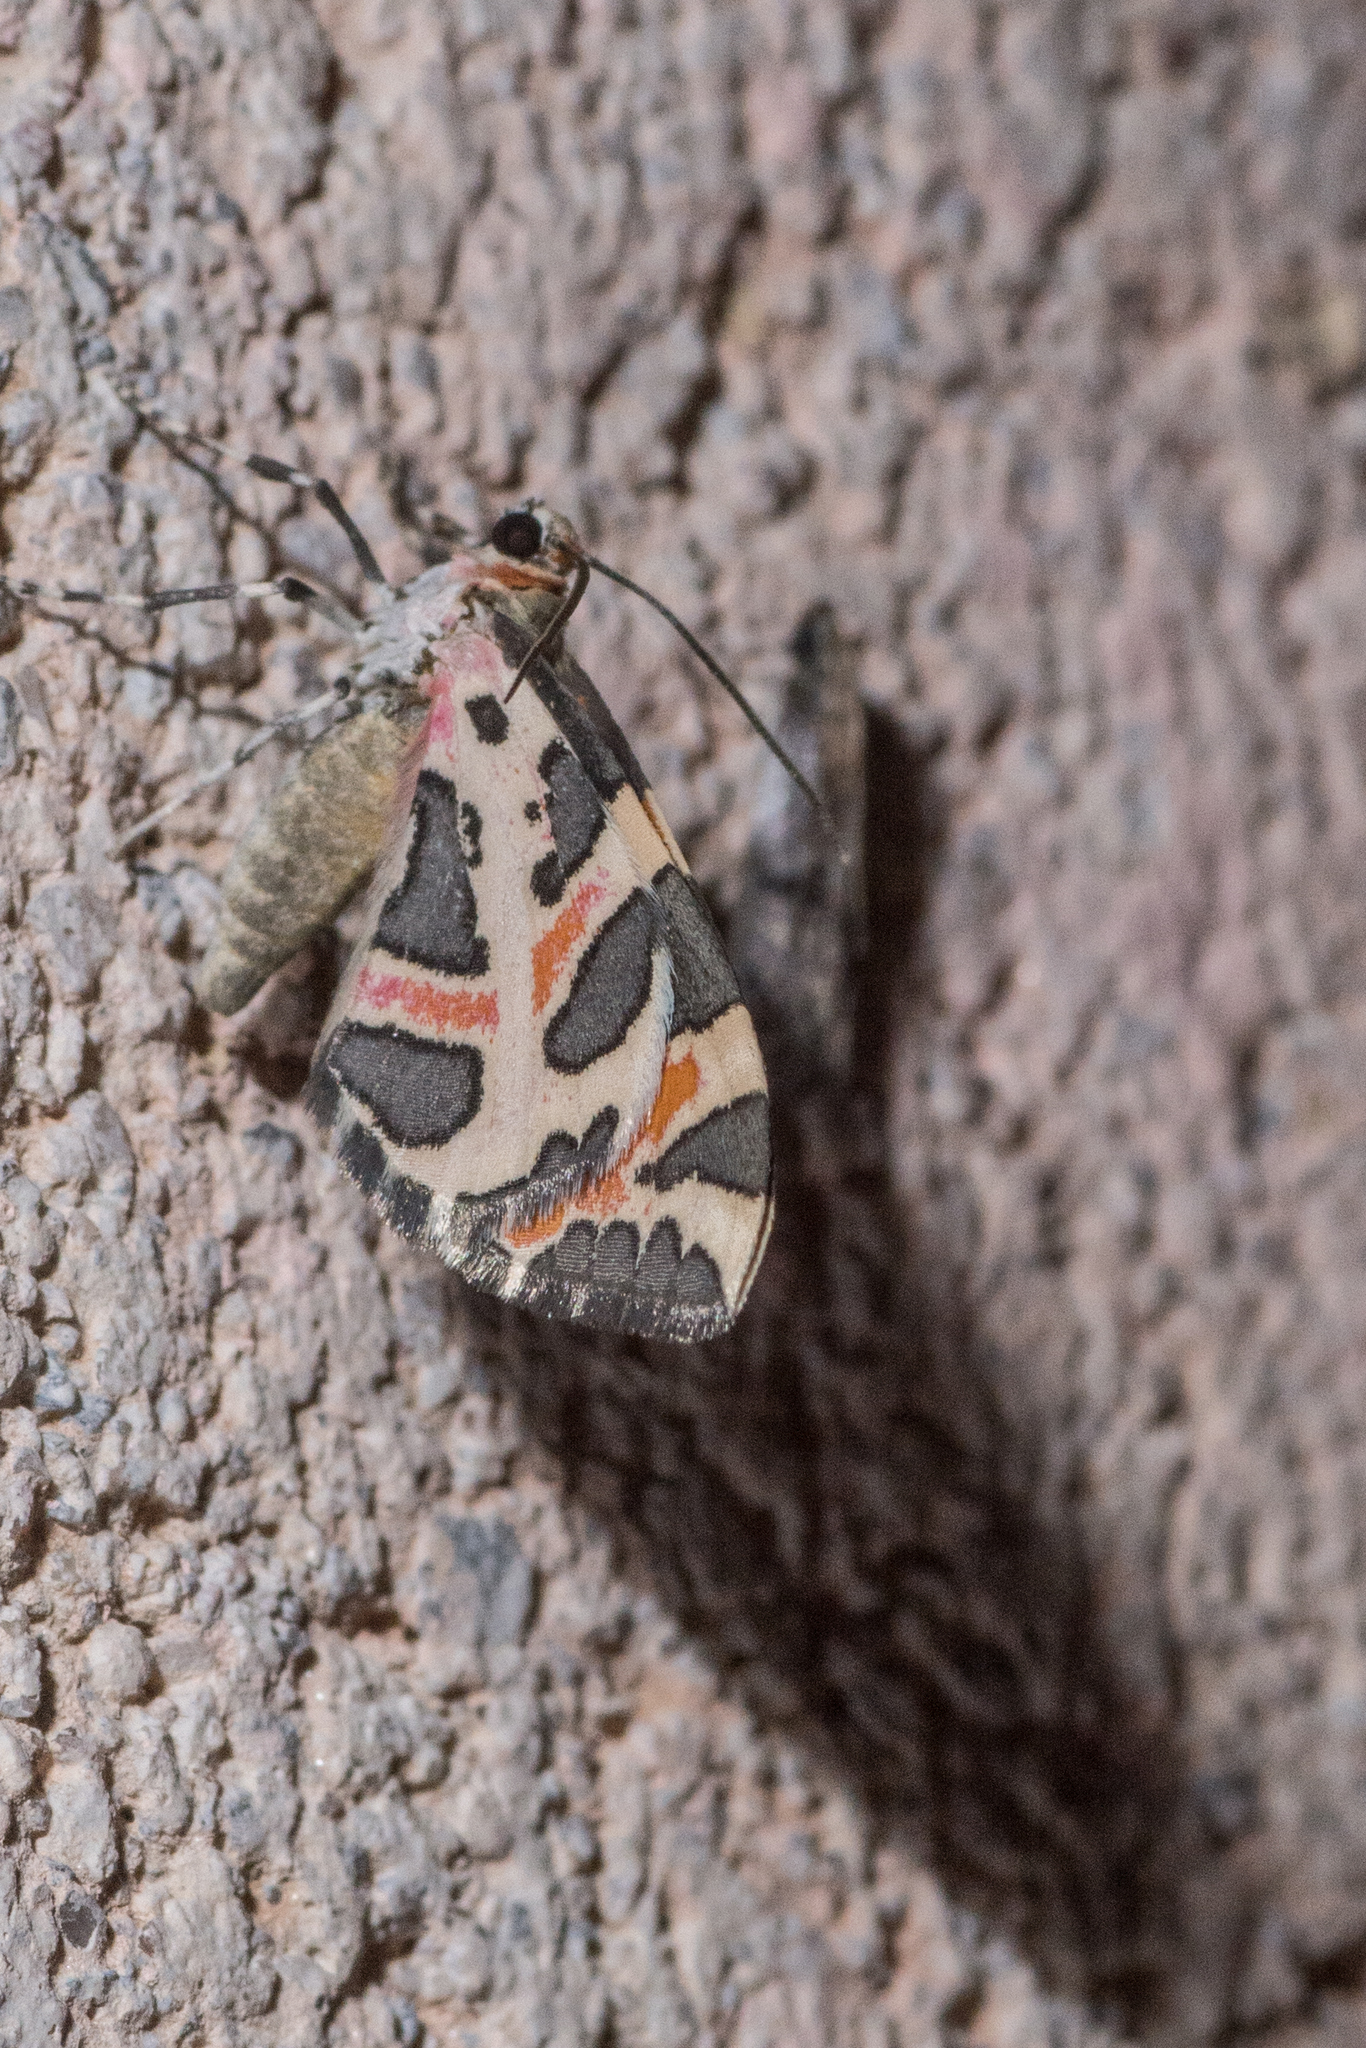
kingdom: Animalia
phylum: Arthropoda
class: Insecta
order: Lepidoptera
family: Geometridae
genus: Stamnodes
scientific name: Stamnodes deceptiva
